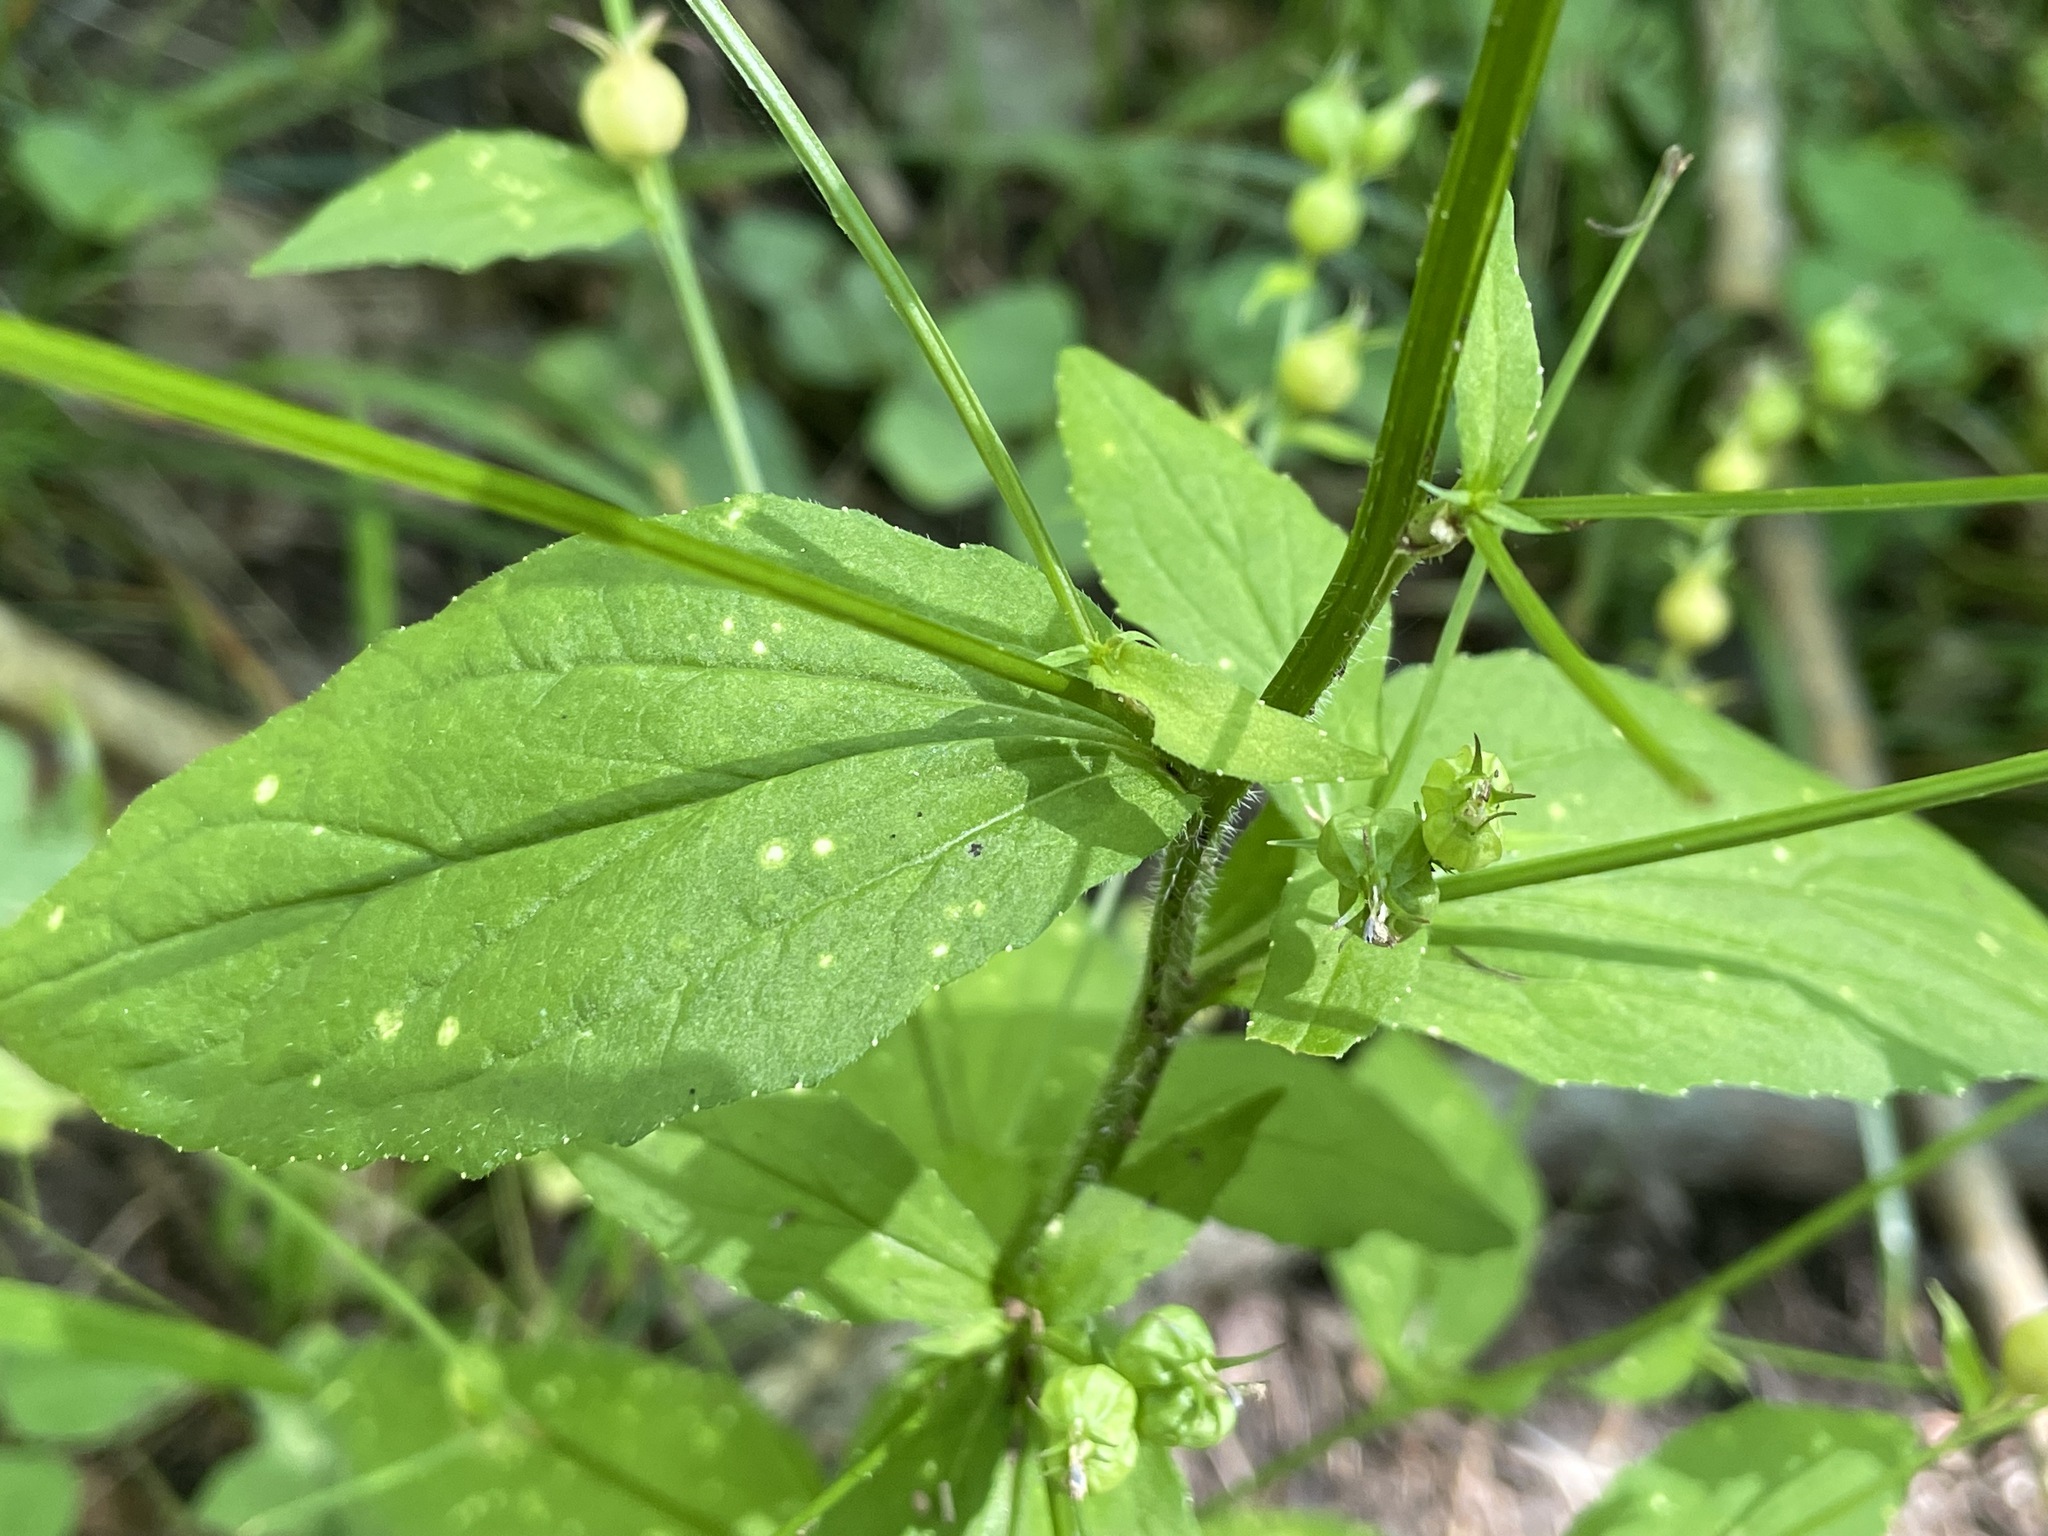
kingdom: Plantae
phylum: Tracheophyta
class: Magnoliopsida
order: Asterales
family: Campanulaceae
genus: Lobelia
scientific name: Lobelia inflata
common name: Indian tobacco
